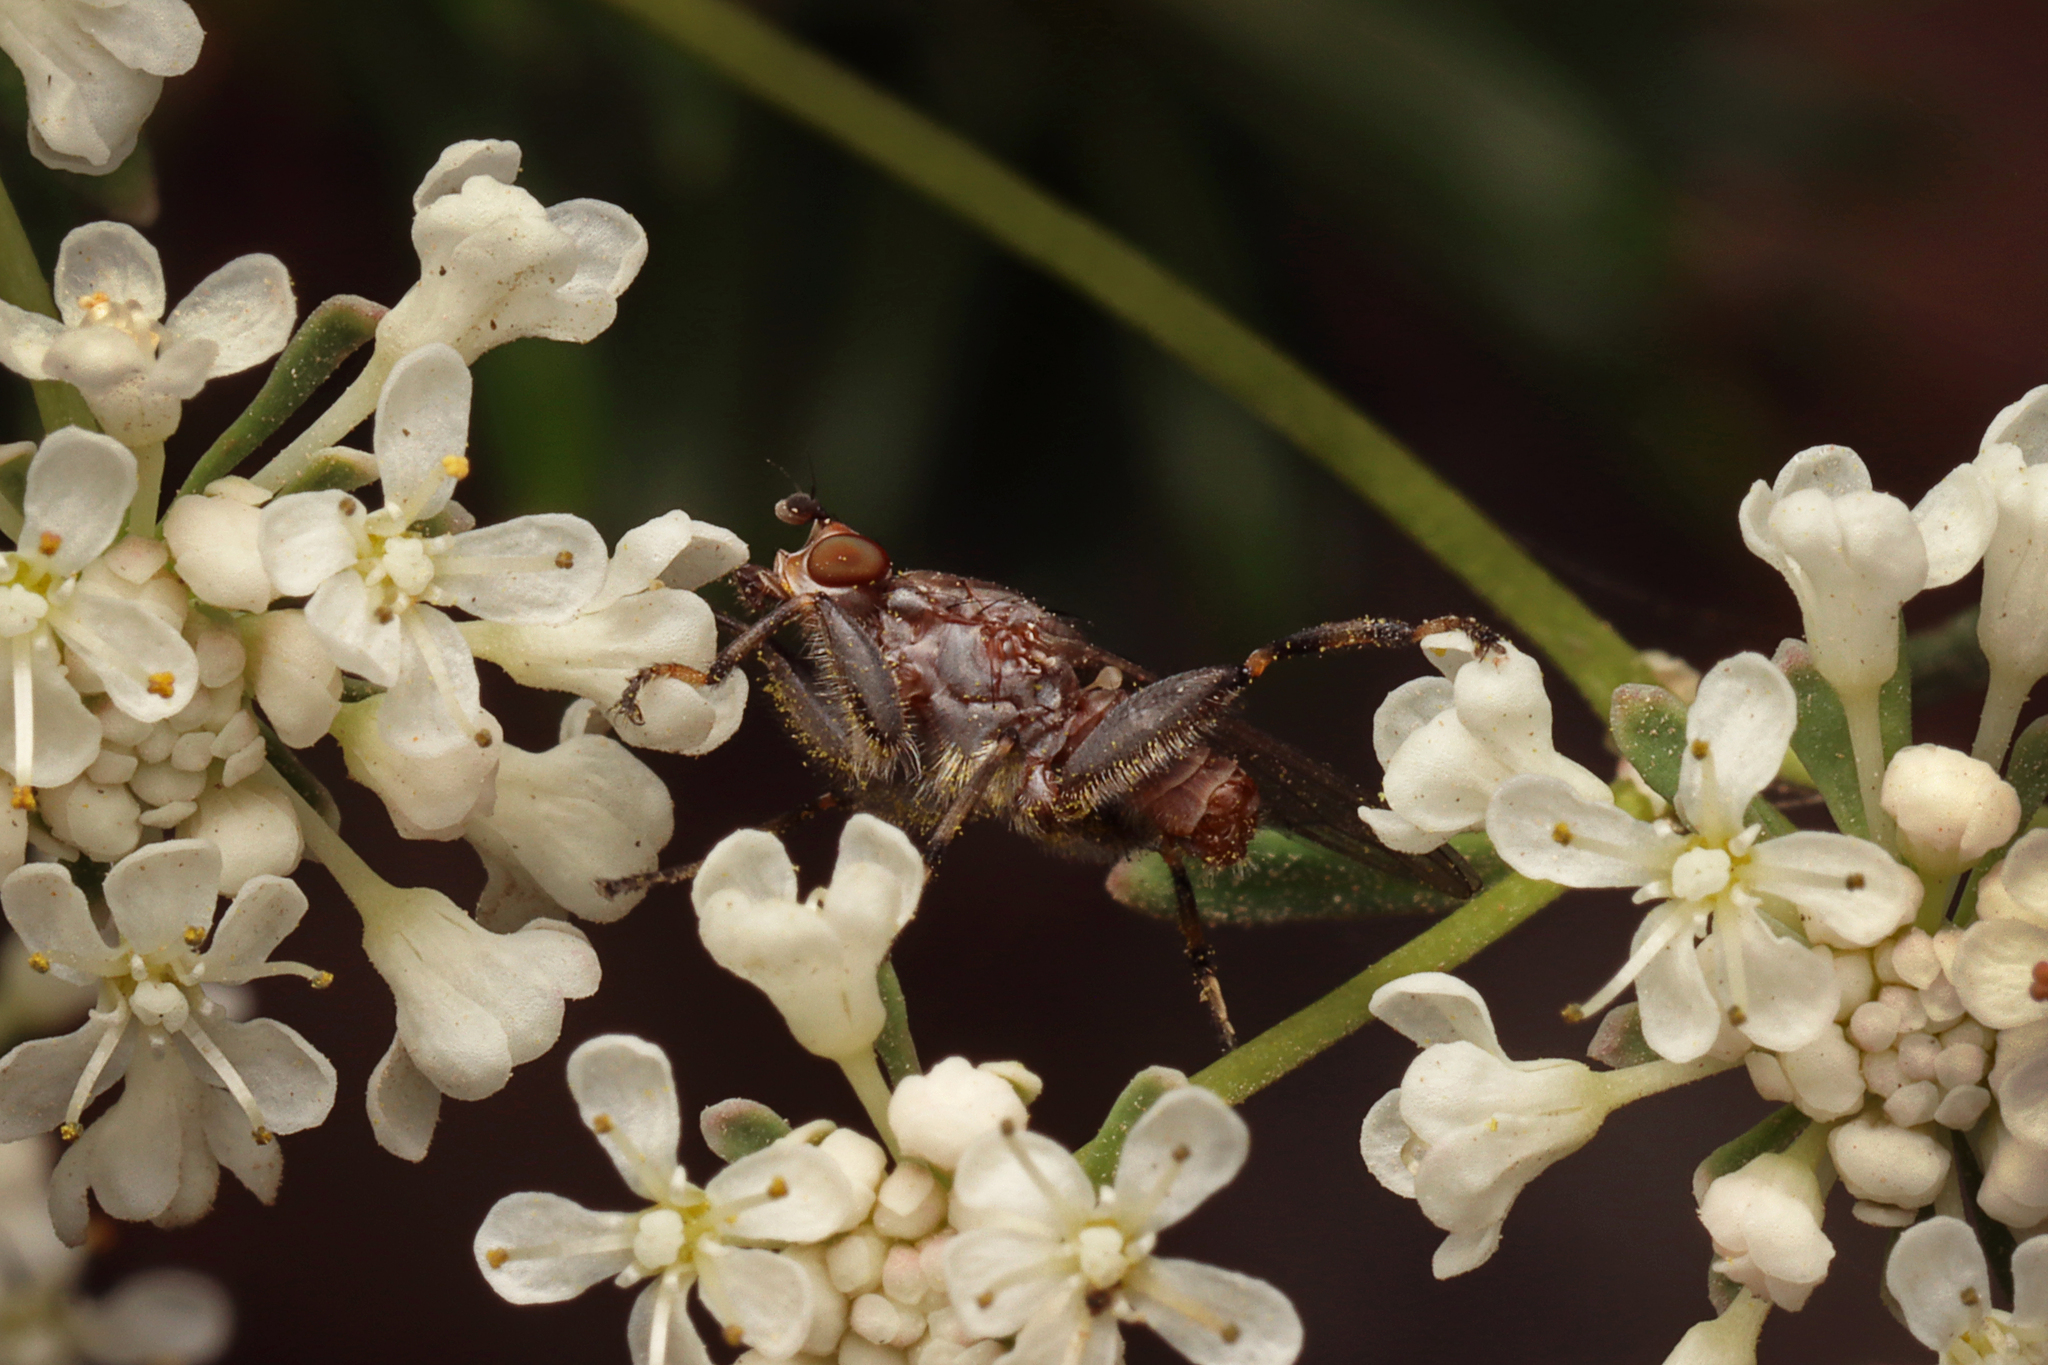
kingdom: Animalia
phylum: Arthropoda
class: Insecta
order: Diptera
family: Heleomyzidae
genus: Tapeigaster
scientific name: Tapeigaster nigricornis
